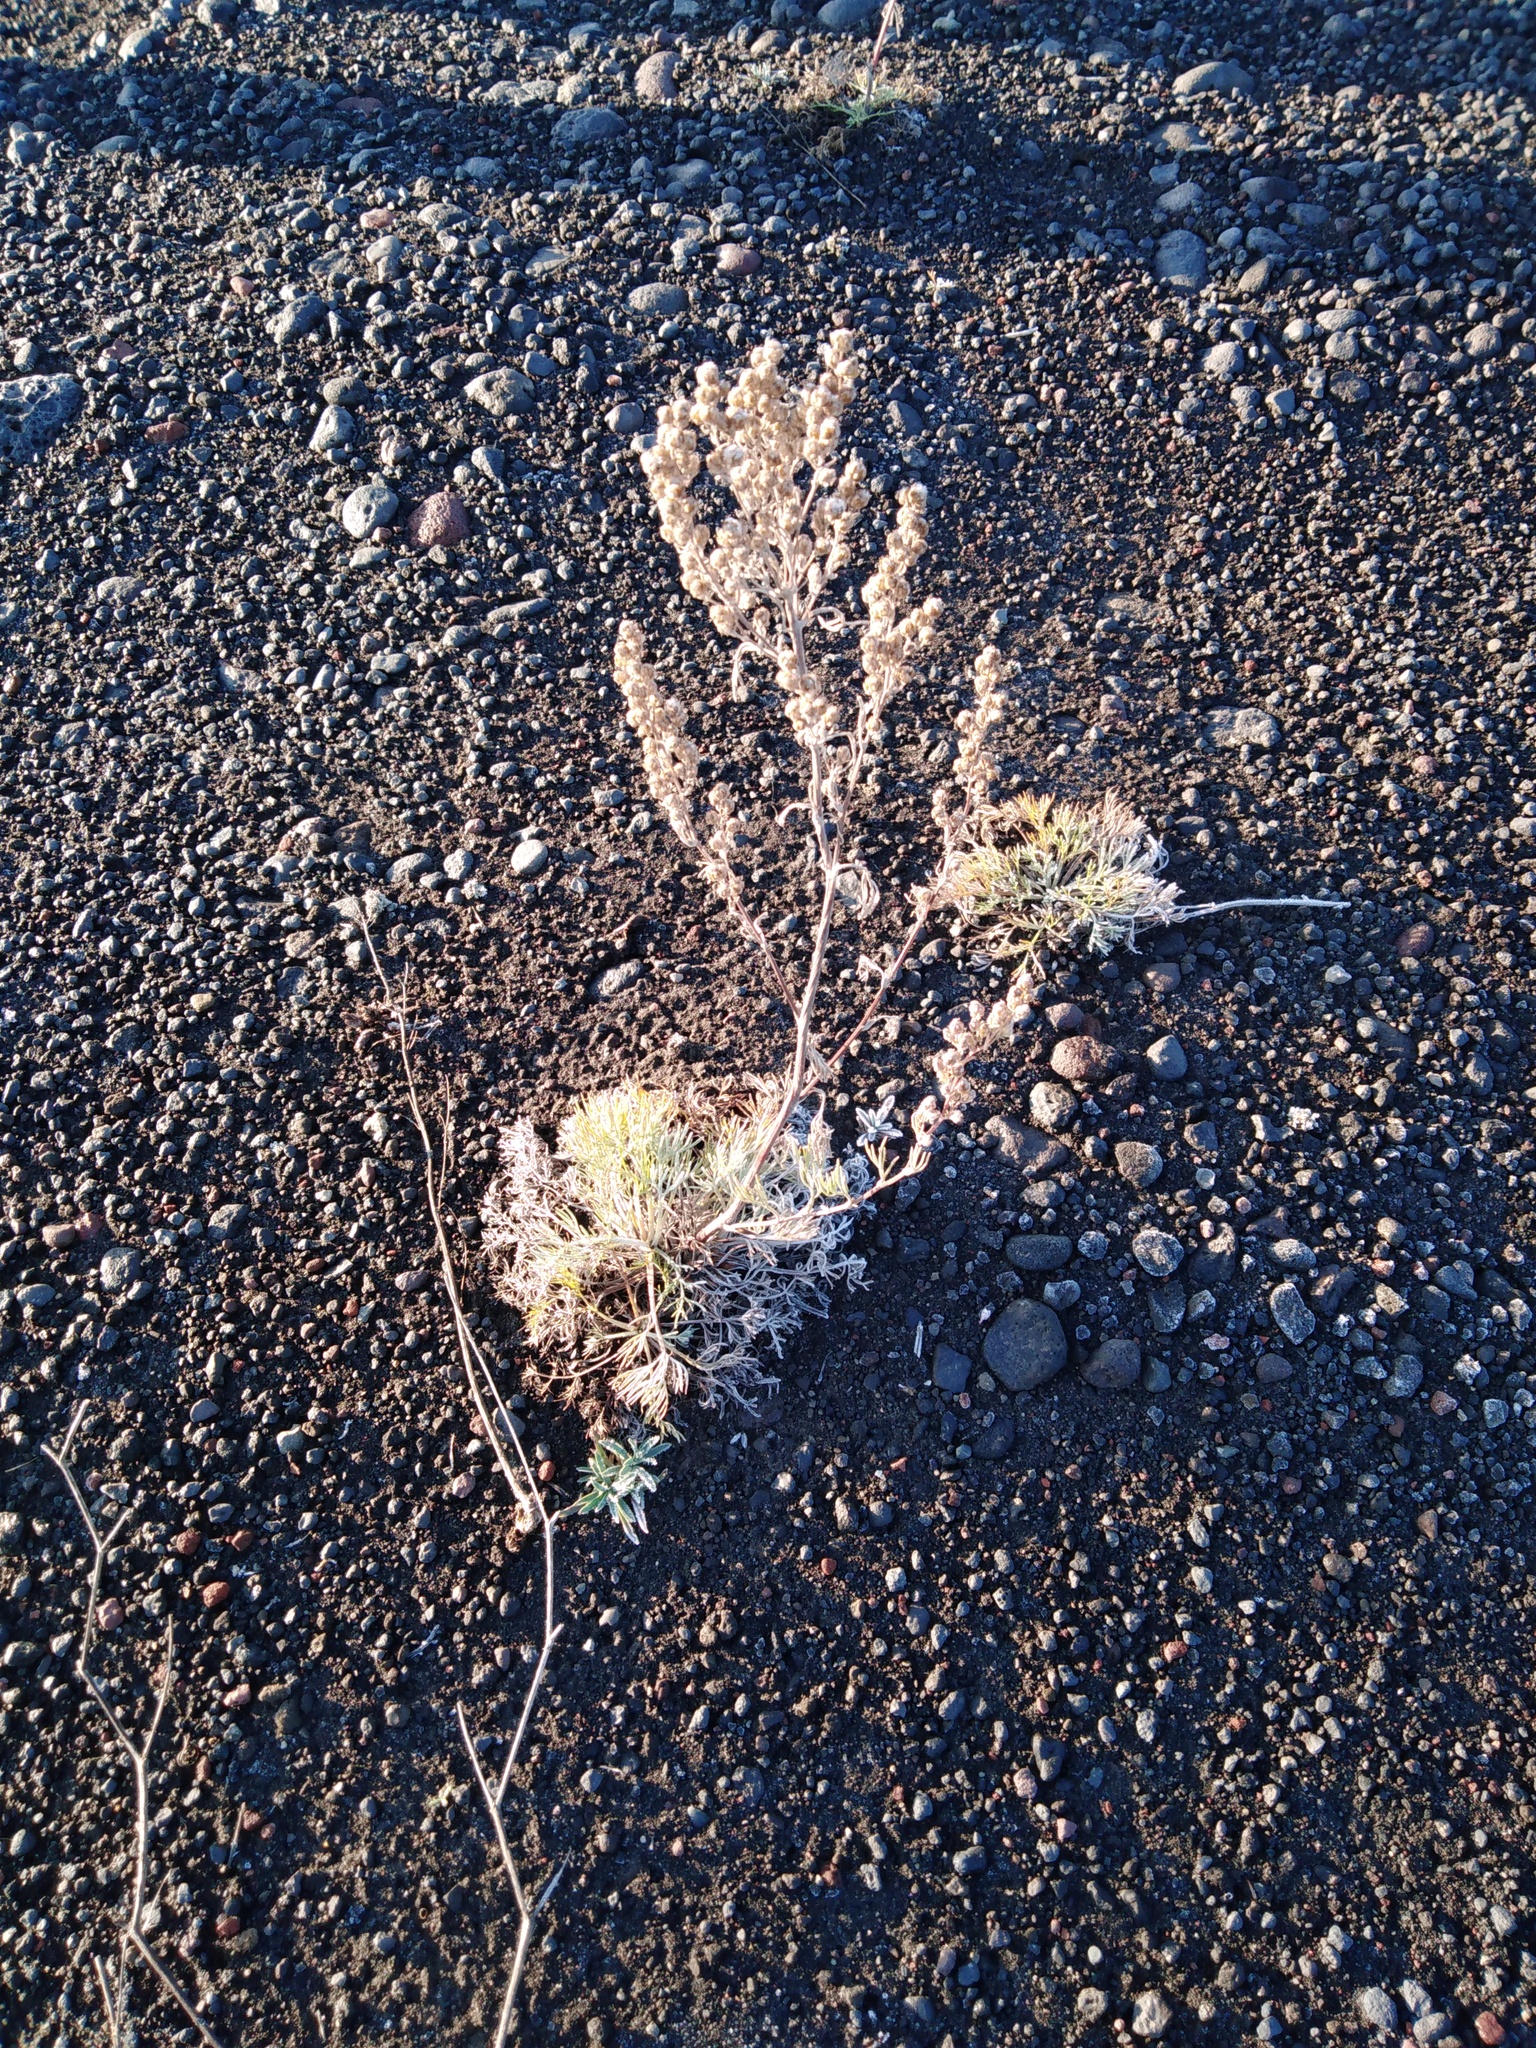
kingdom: Plantae
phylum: Tracheophyta
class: Magnoliopsida
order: Asterales
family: Asteraceae
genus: Artemisia
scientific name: Artemisia borealis
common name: Boreal sage
